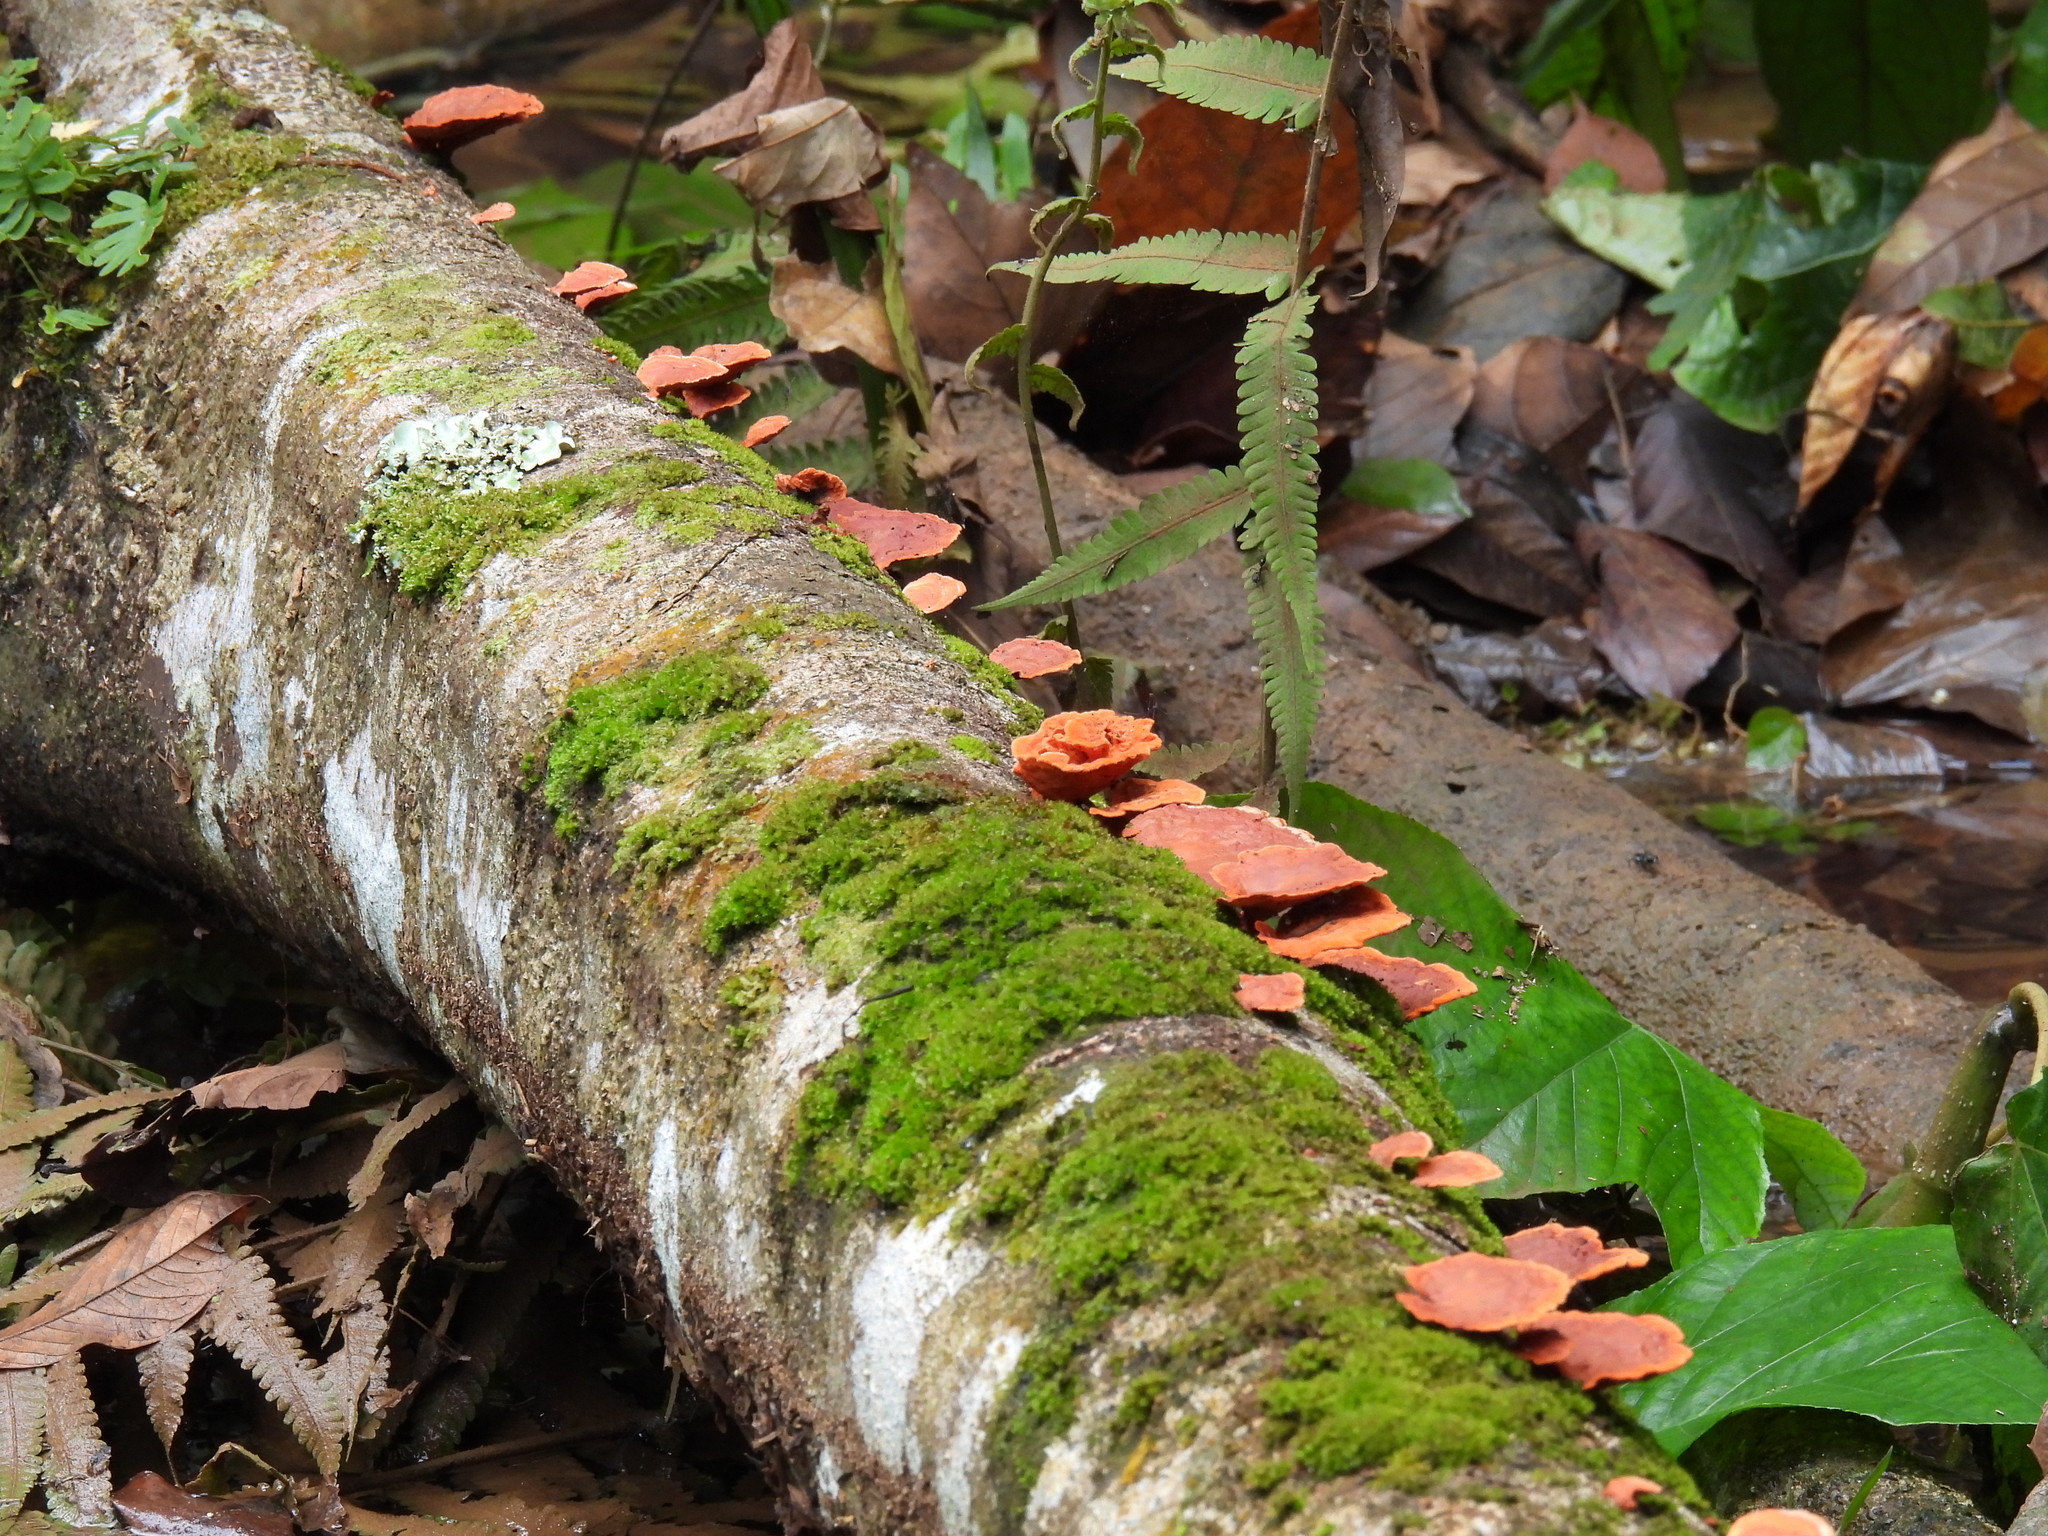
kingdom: Fungi
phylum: Basidiomycota
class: Agaricomycetes
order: Polyporales
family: Polyporaceae
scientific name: Polyporaceae
